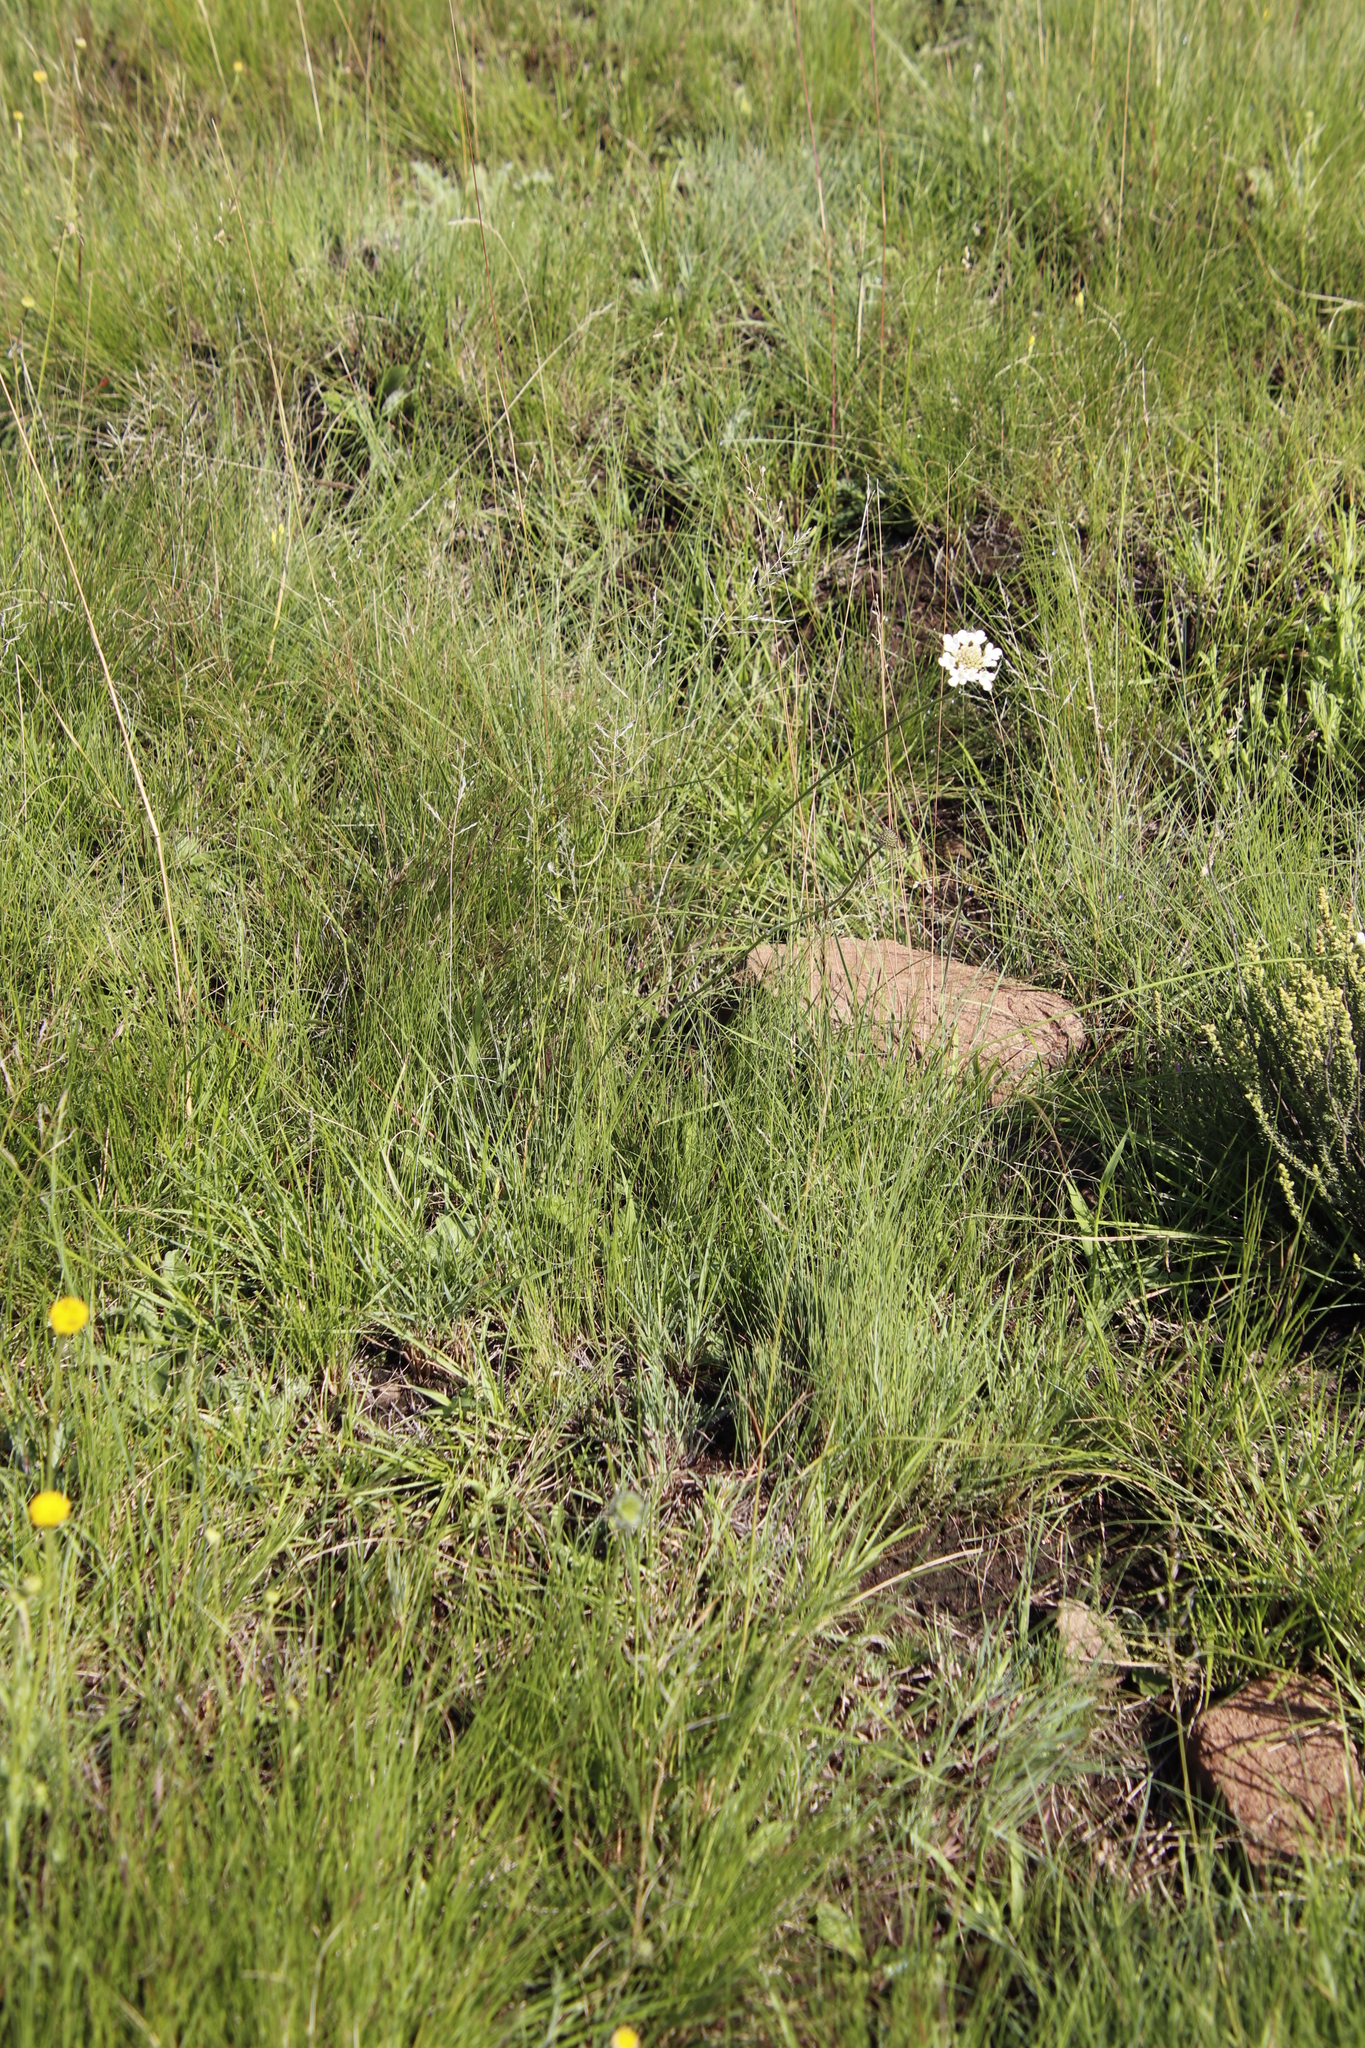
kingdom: Plantae
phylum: Tracheophyta
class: Magnoliopsida
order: Dipsacales
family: Caprifoliaceae
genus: Scabiosa
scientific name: Scabiosa columbaria
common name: Small scabious
